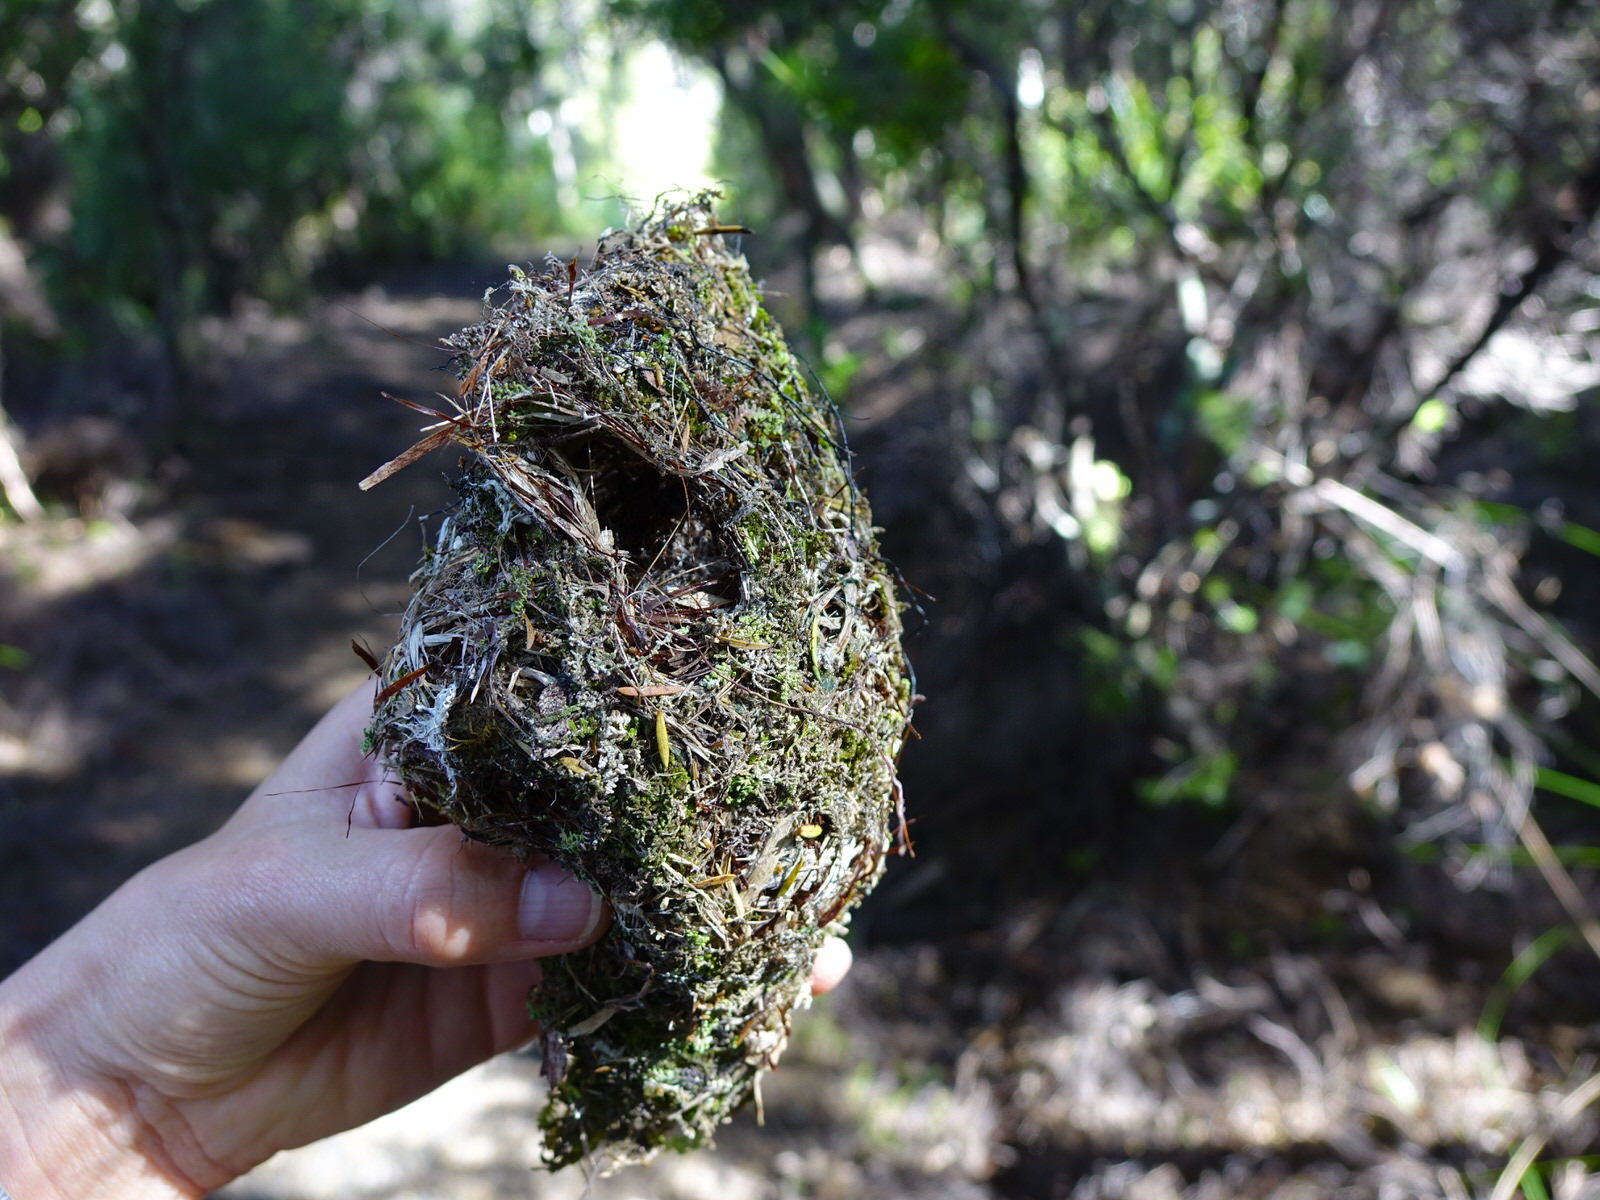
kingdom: Animalia
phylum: Chordata
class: Aves
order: Passeriformes
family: Acanthizidae
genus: Gerygone
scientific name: Gerygone igata
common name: Grey gerygone
